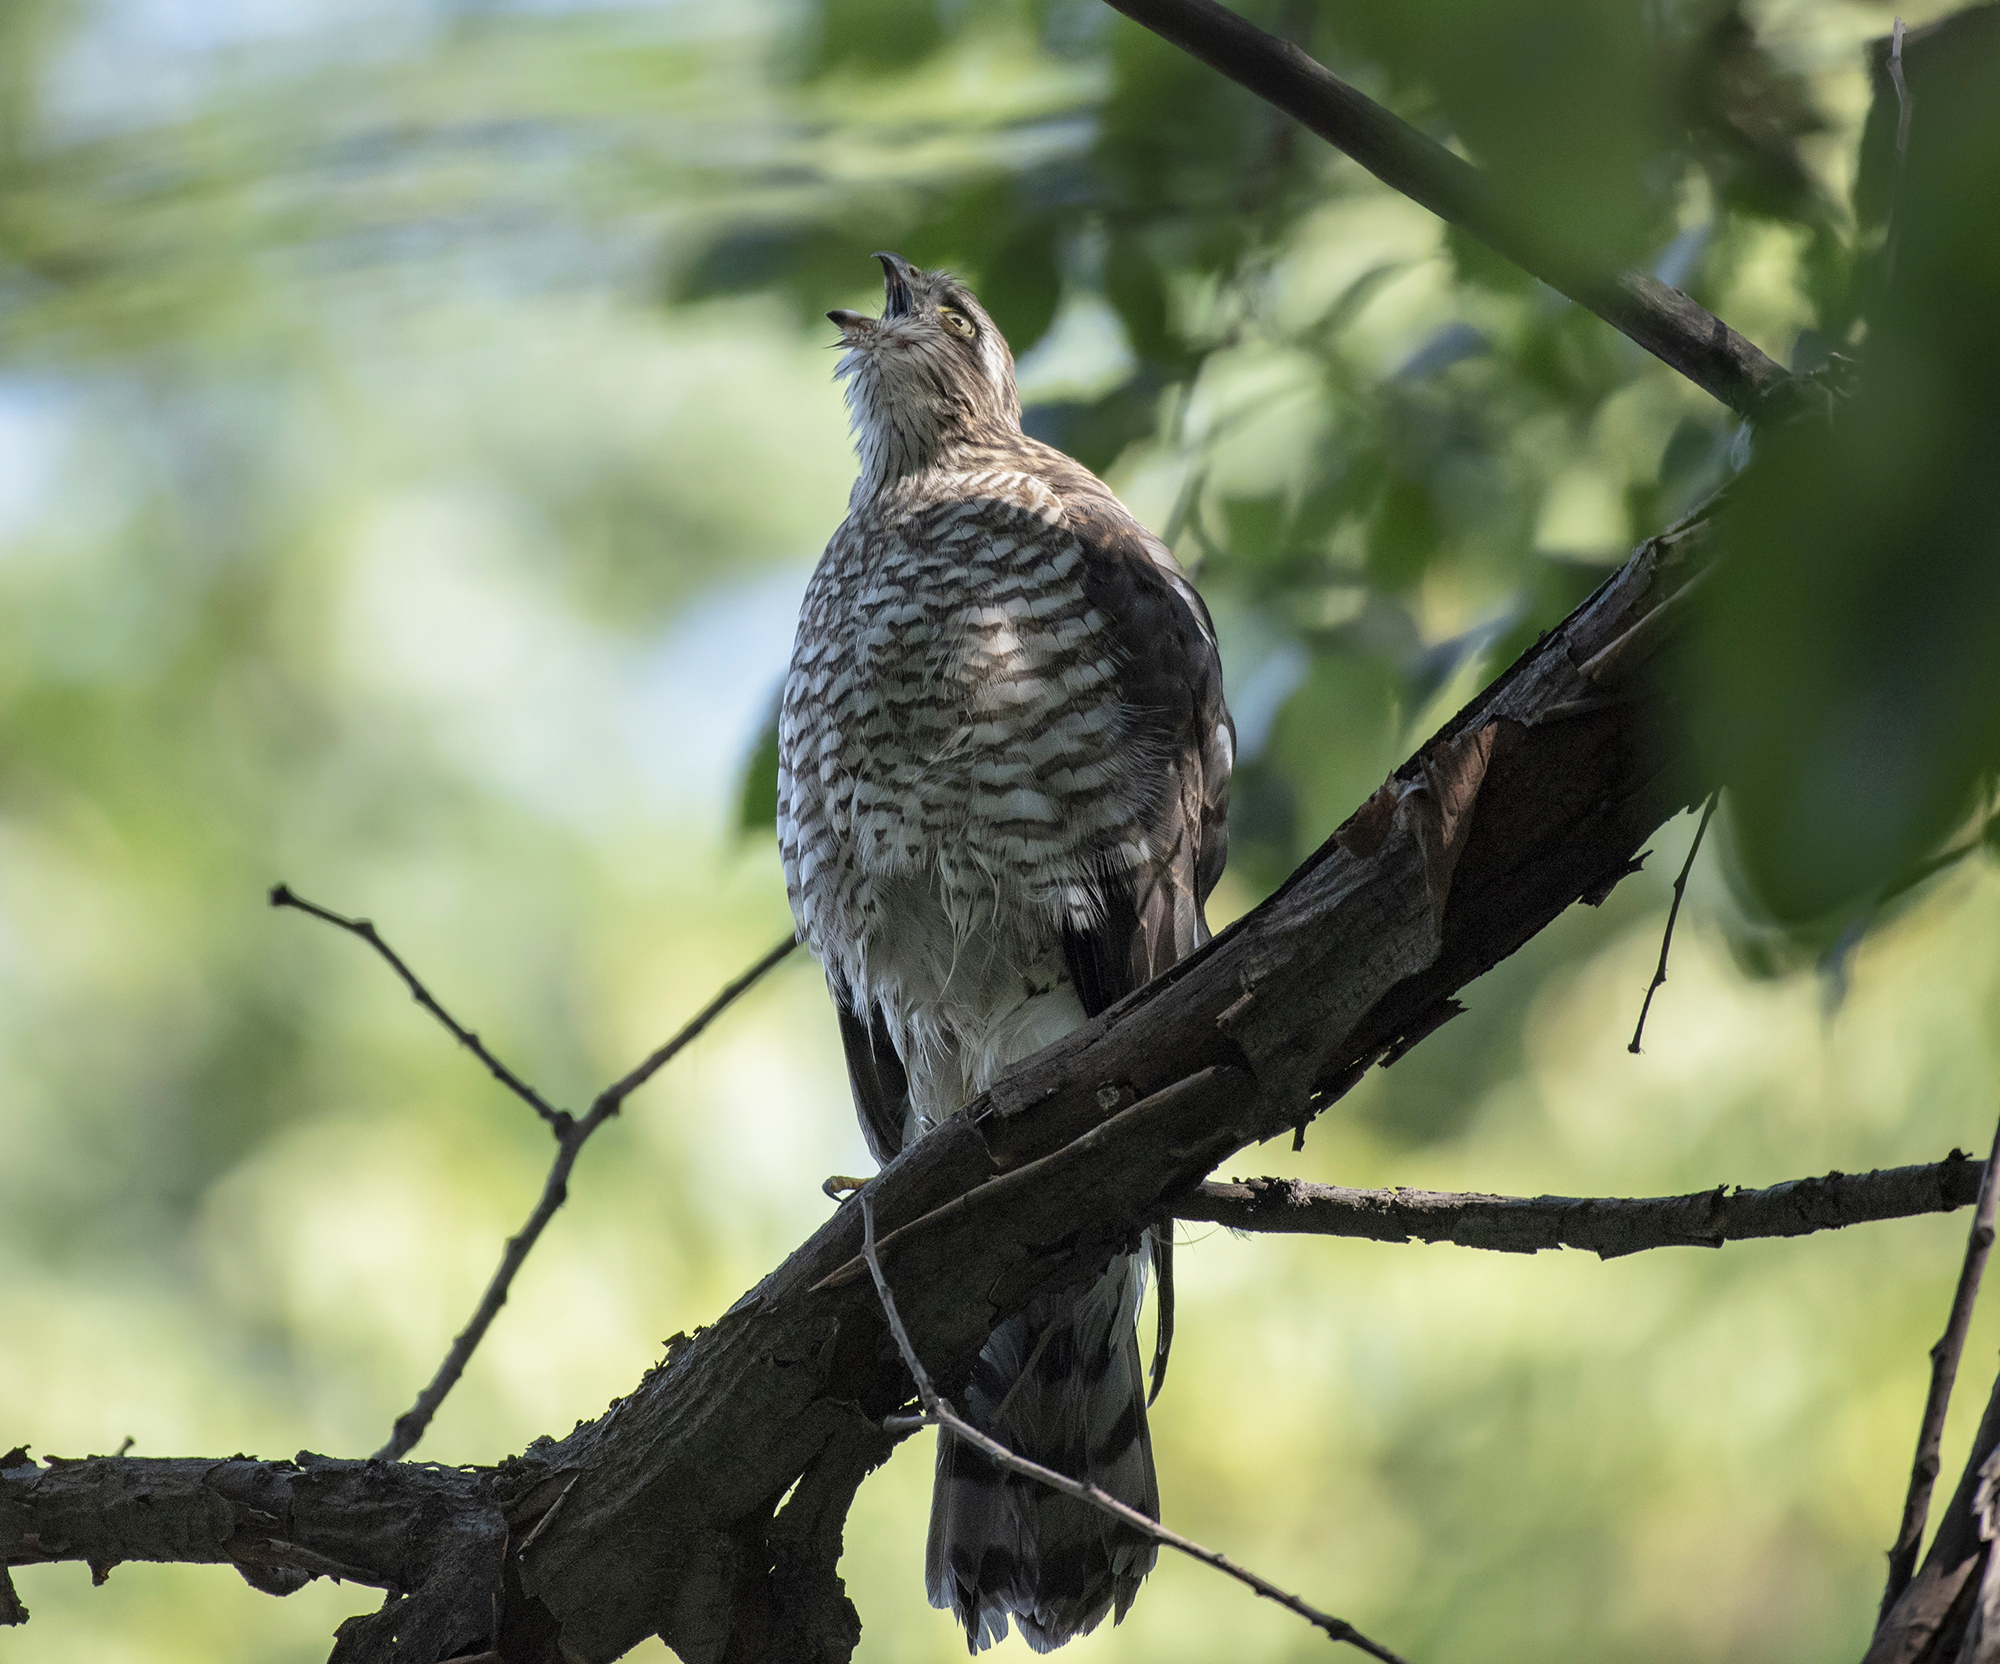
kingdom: Animalia
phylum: Chordata
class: Aves
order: Accipitriformes
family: Accipitridae
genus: Accipiter
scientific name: Accipiter nisus
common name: Eurasian sparrowhawk
